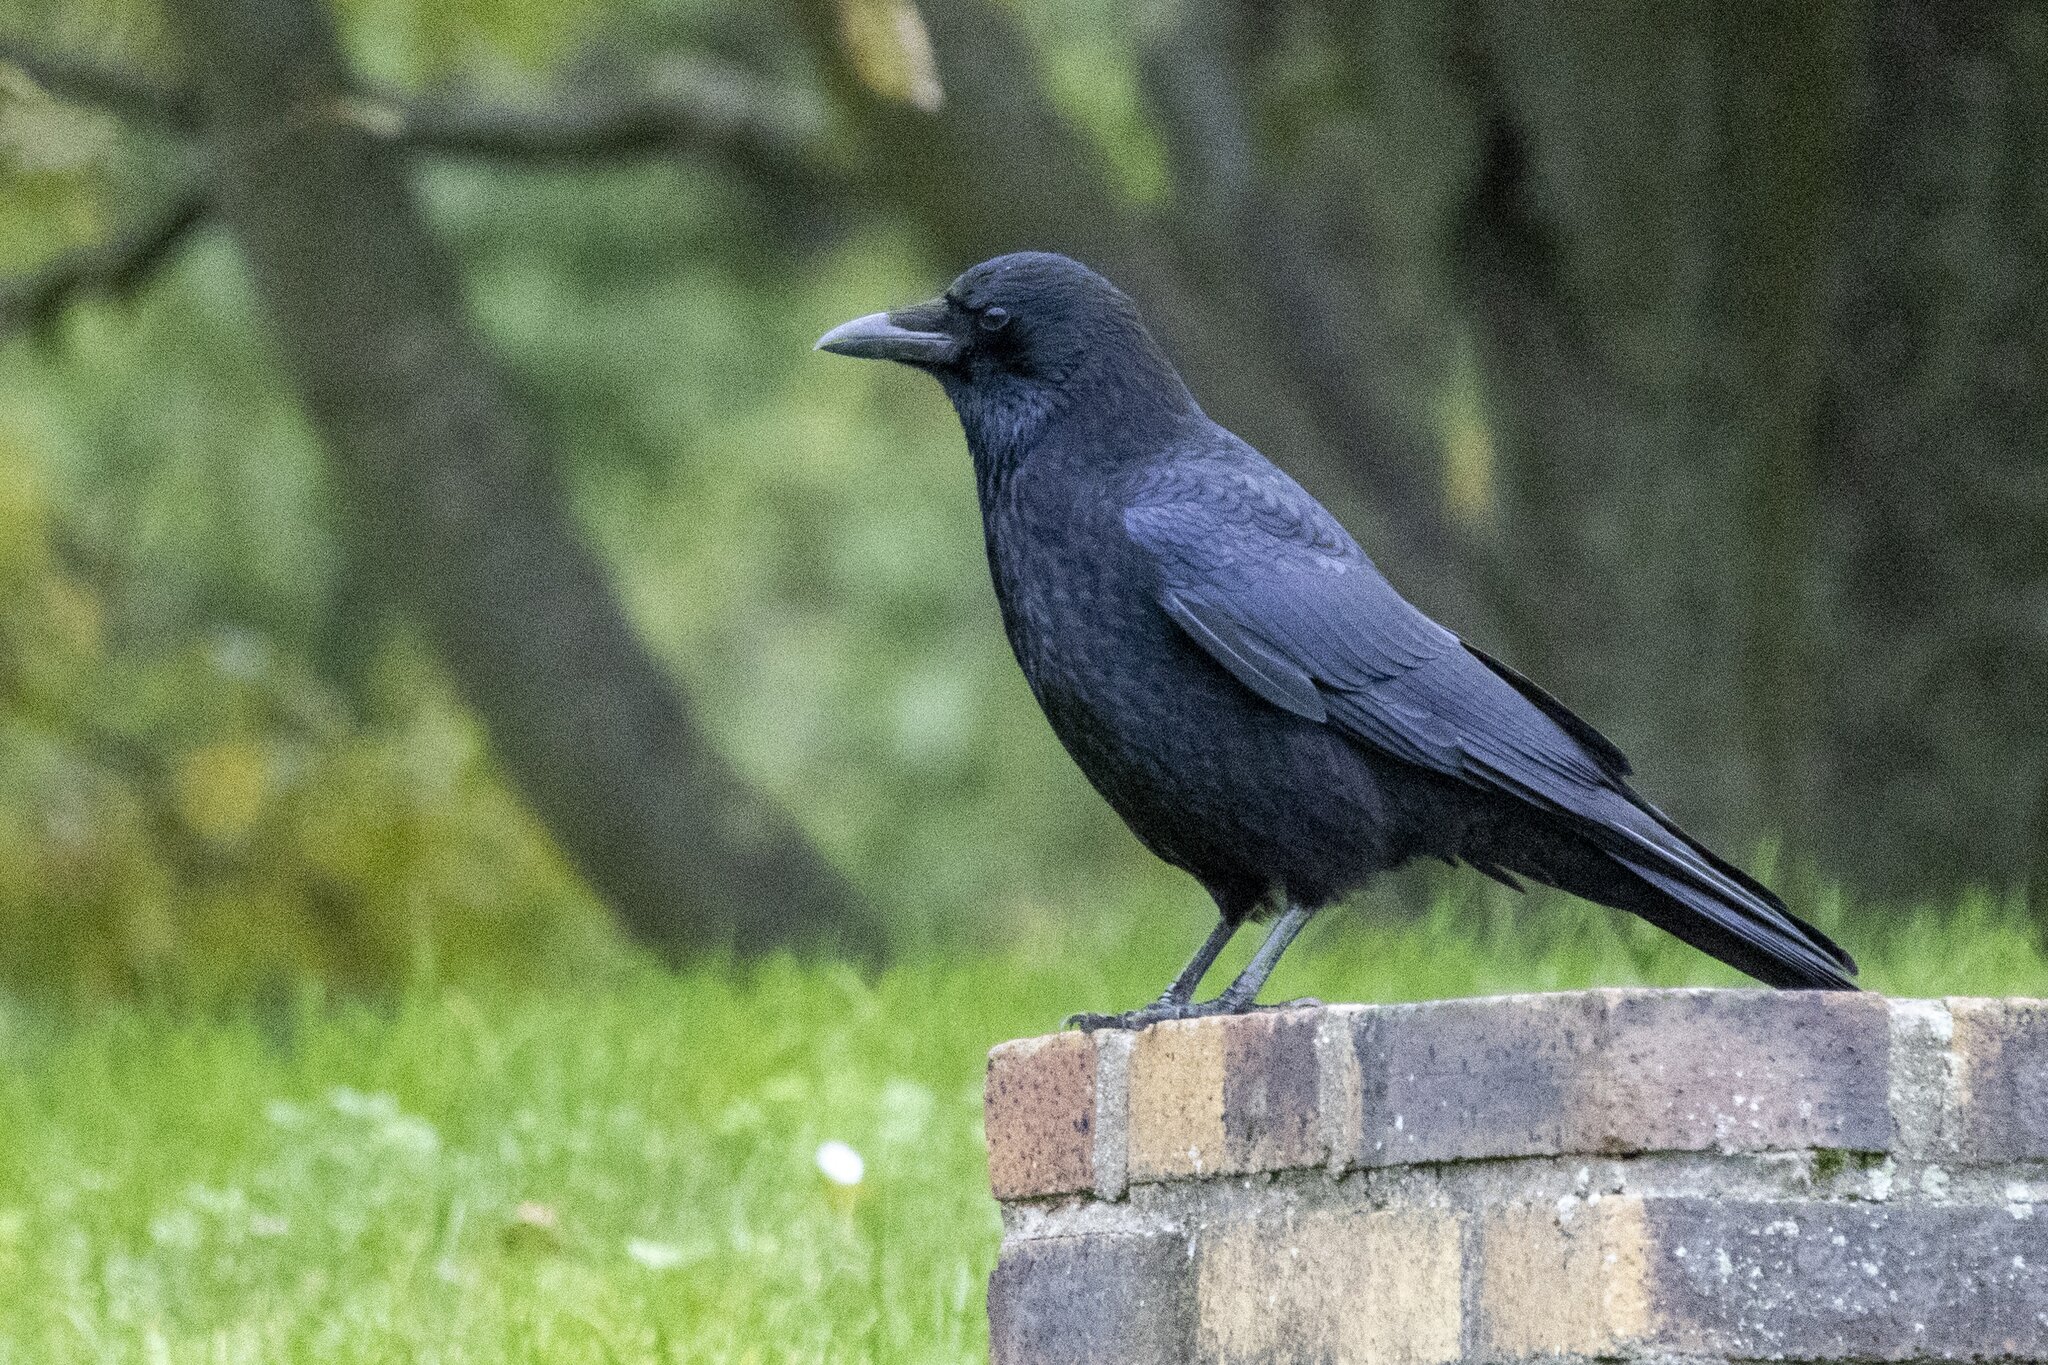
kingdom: Animalia
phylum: Chordata
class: Aves
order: Passeriformes
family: Corvidae
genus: Corvus
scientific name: Corvus corone
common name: Carrion crow
